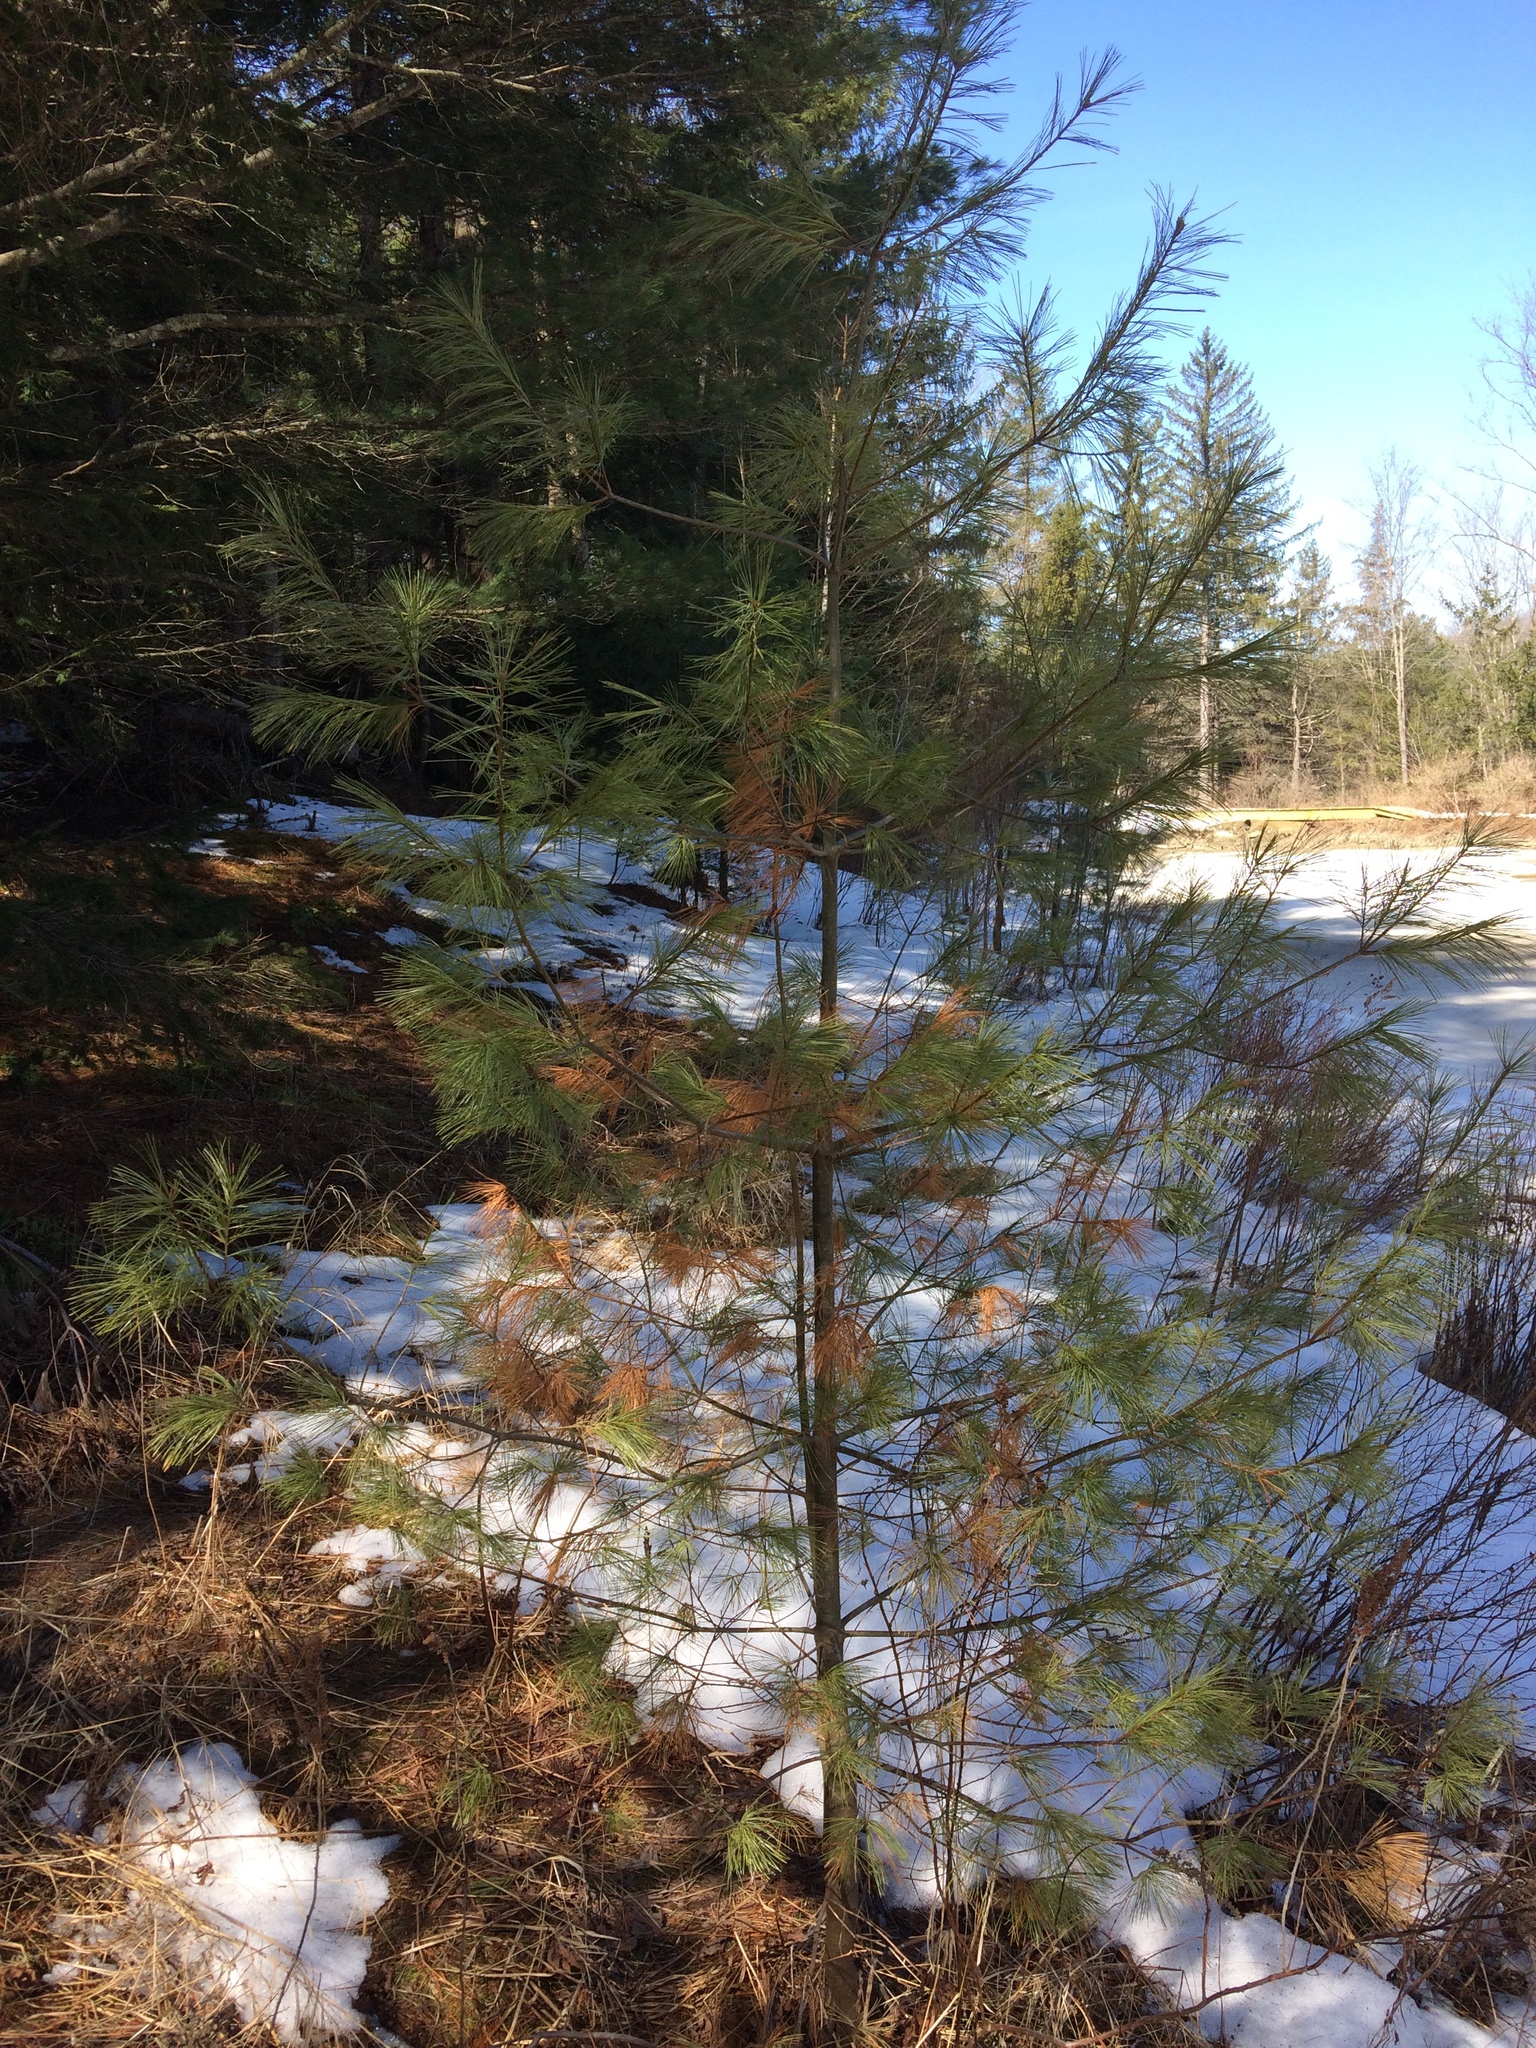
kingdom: Plantae
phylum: Tracheophyta
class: Pinopsida
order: Pinales
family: Pinaceae
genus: Pinus
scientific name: Pinus strobus
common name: Weymouth pine
